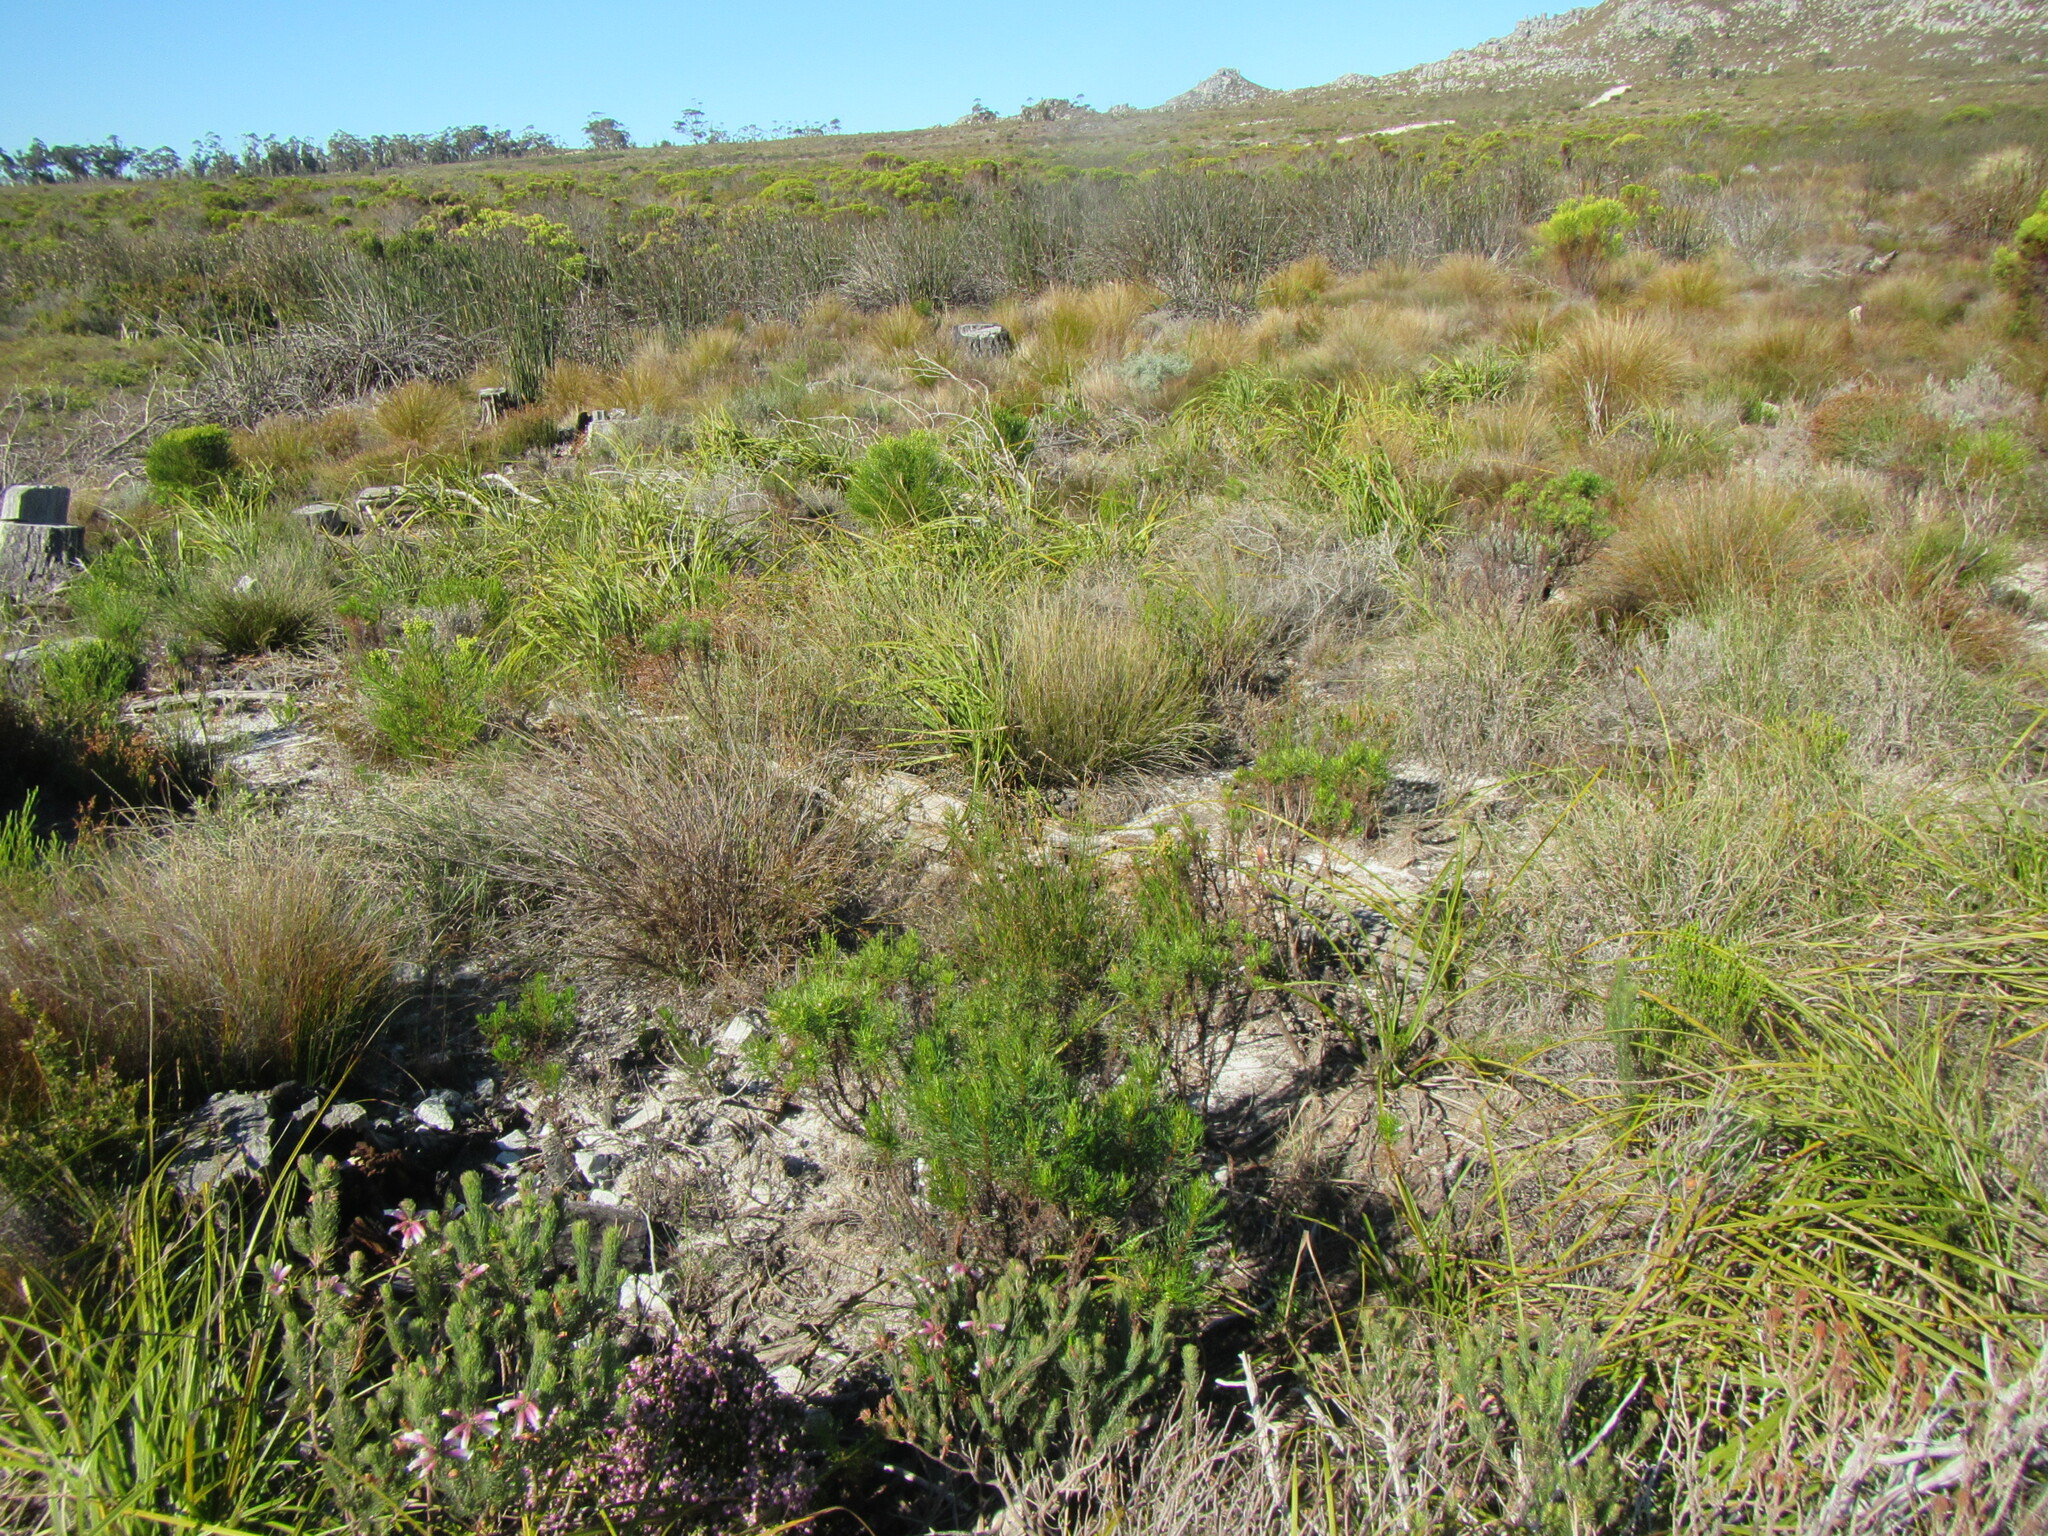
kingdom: Plantae
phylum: Tracheophyta
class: Liliopsida
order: Asparagales
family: Lanariaceae
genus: Lanaria
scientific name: Lanaria lanata
